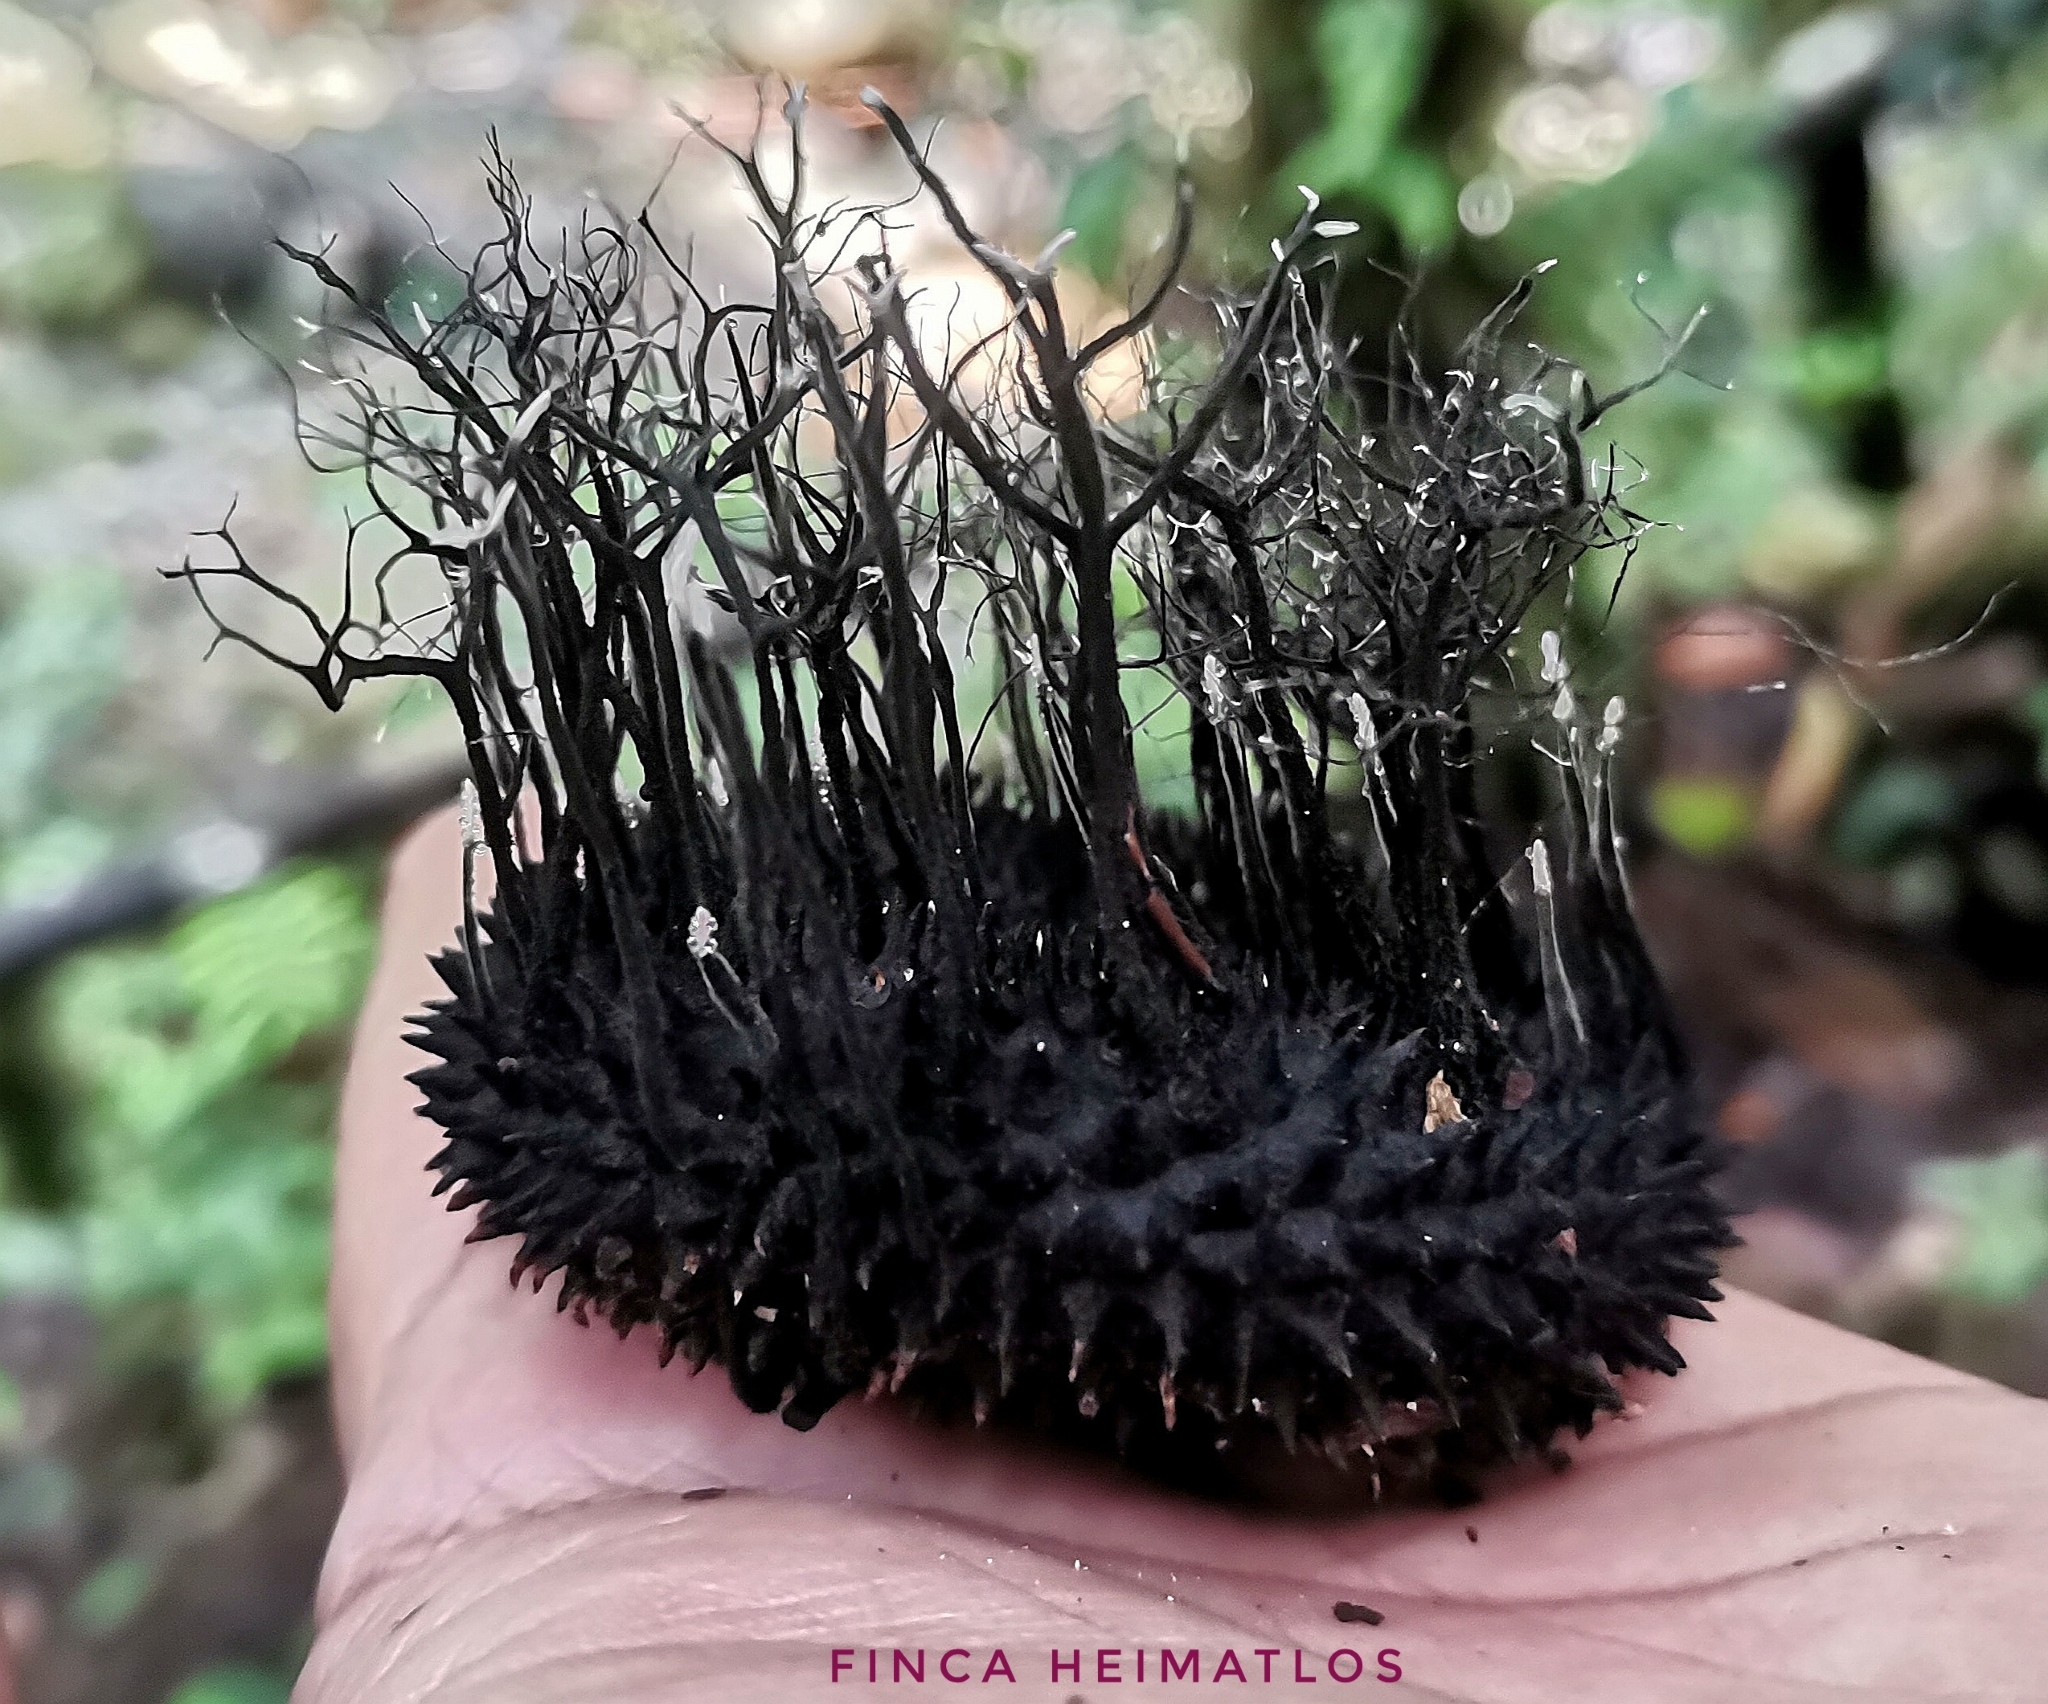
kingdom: Fungi
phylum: Ascomycota
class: Sordariomycetes
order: Xylariales
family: Xylariaceae
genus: Xylaria
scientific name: Xylaria apeibae
